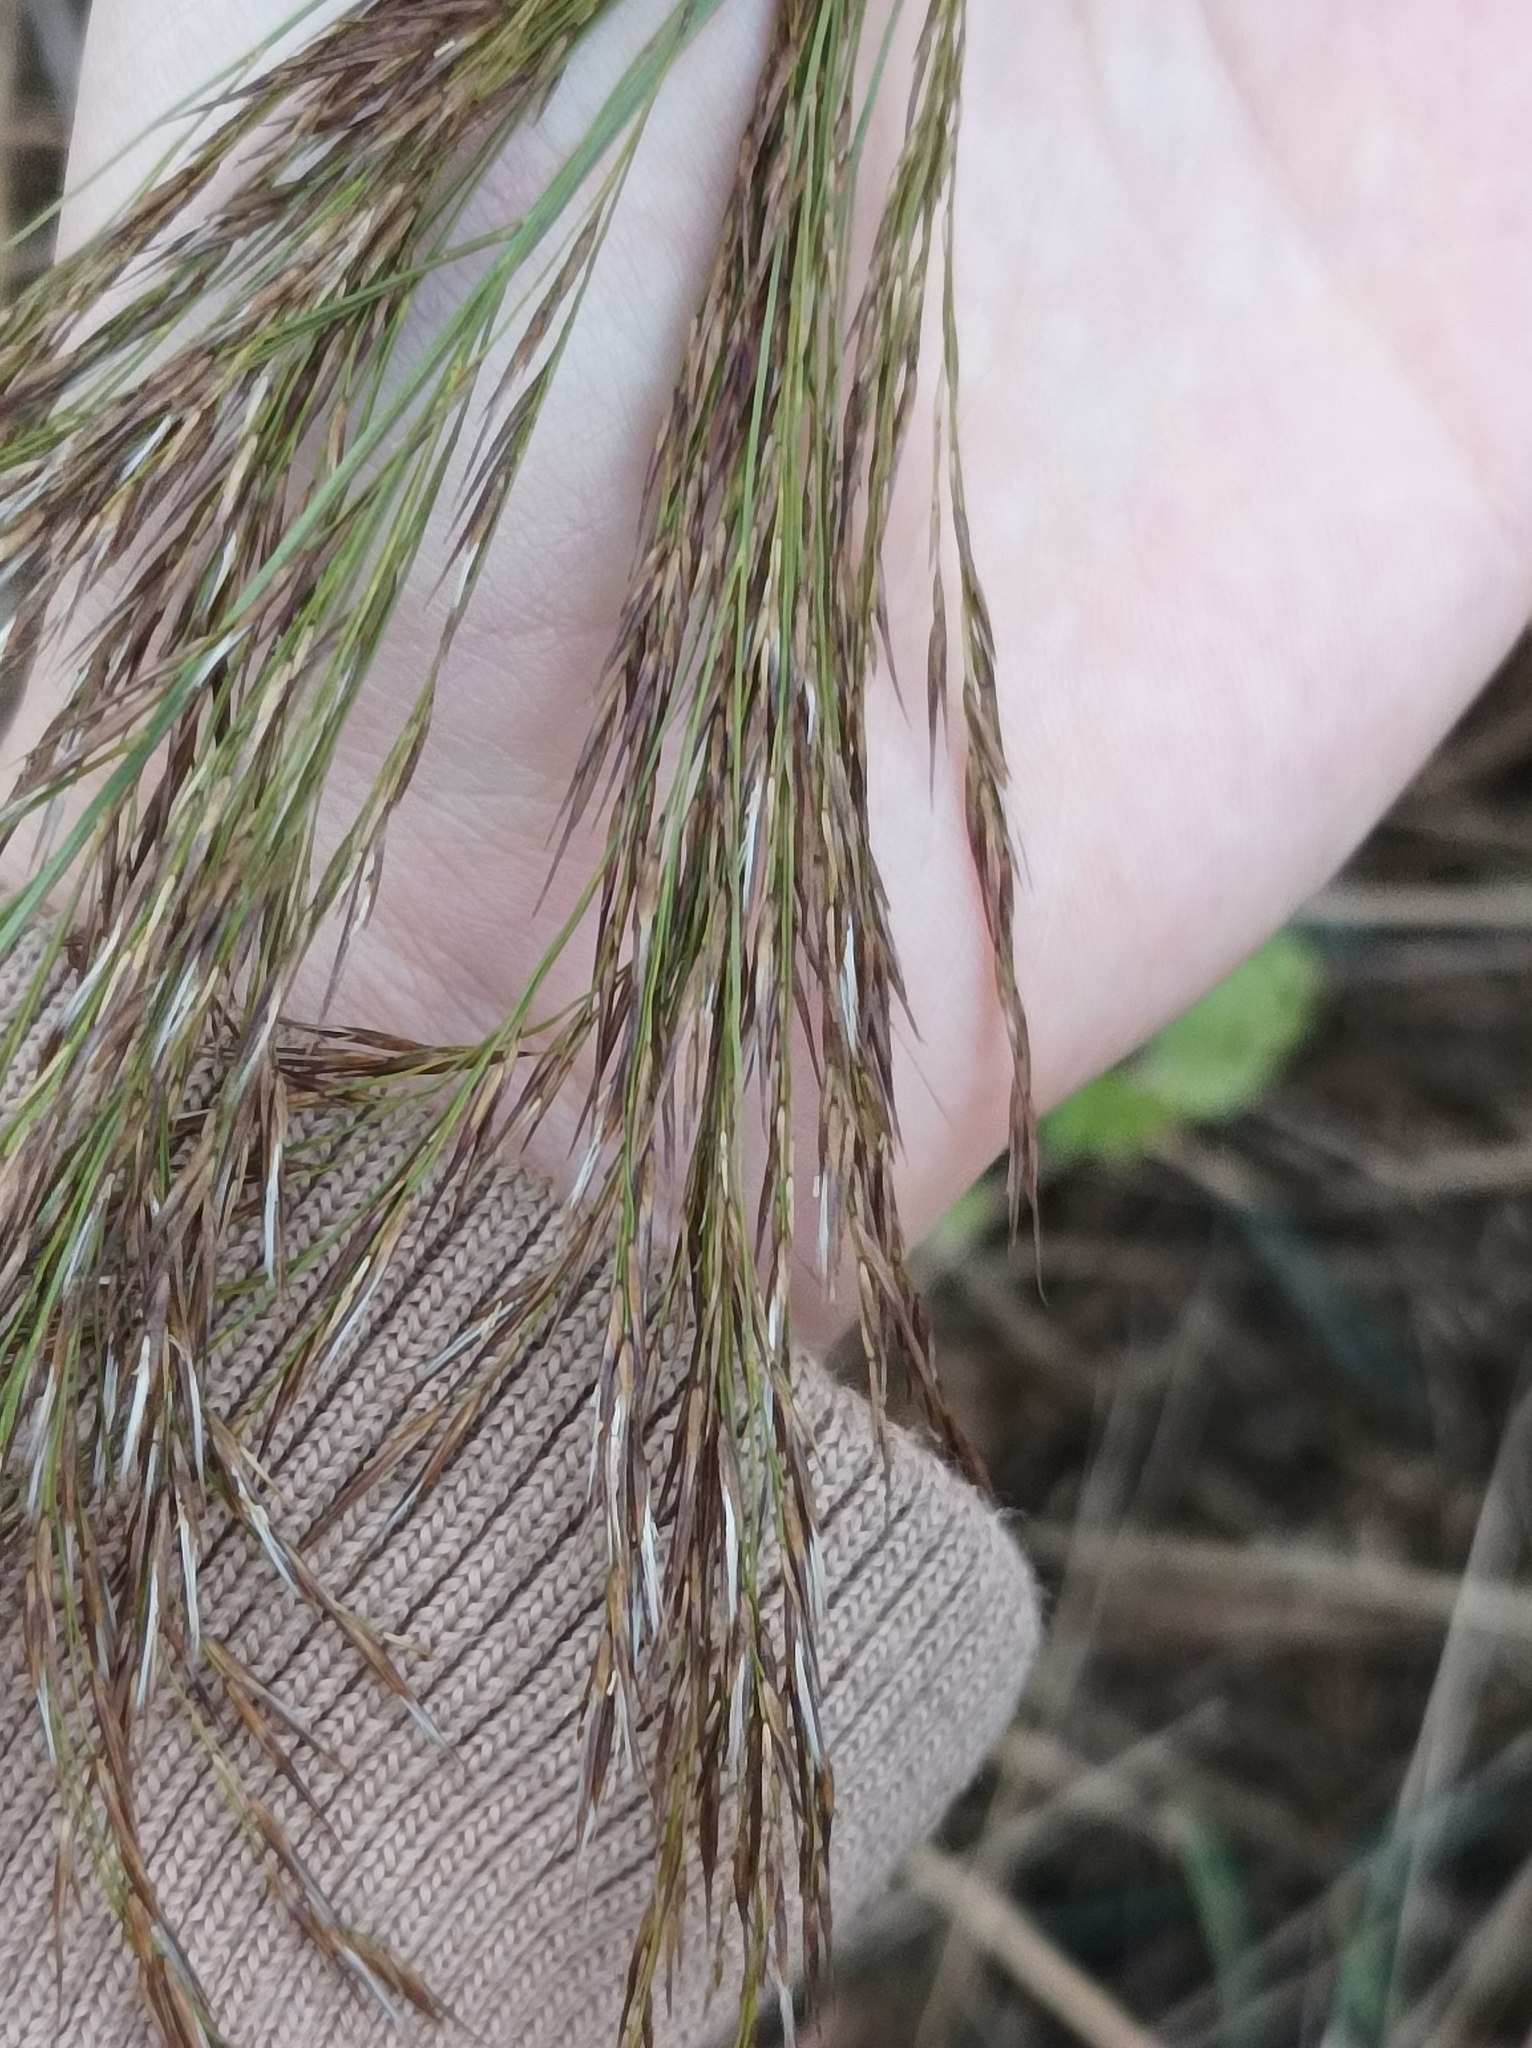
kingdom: Plantae
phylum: Tracheophyta
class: Liliopsida
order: Poales
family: Poaceae
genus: Phragmites
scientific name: Phragmites australis
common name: Common reed
